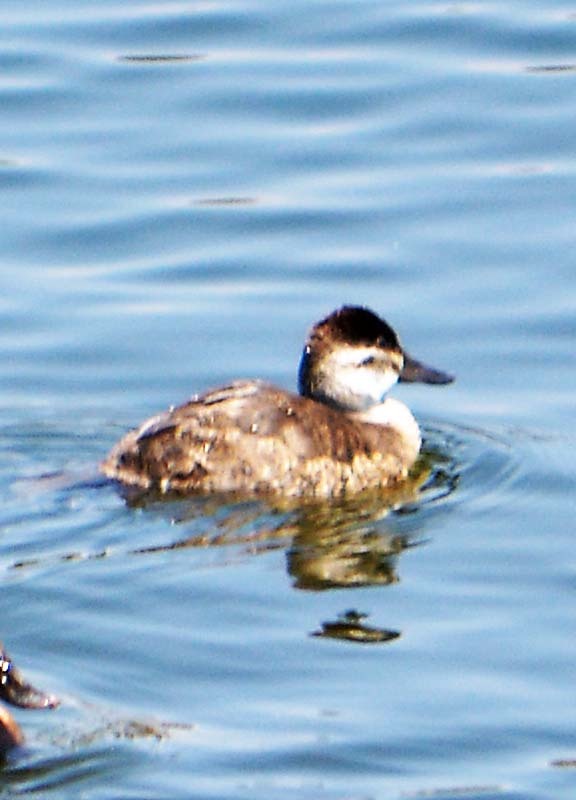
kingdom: Animalia
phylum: Chordata
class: Aves
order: Anseriformes
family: Anatidae
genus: Oxyura
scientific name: Oxyura jamaicensis
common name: Ruddy duck
